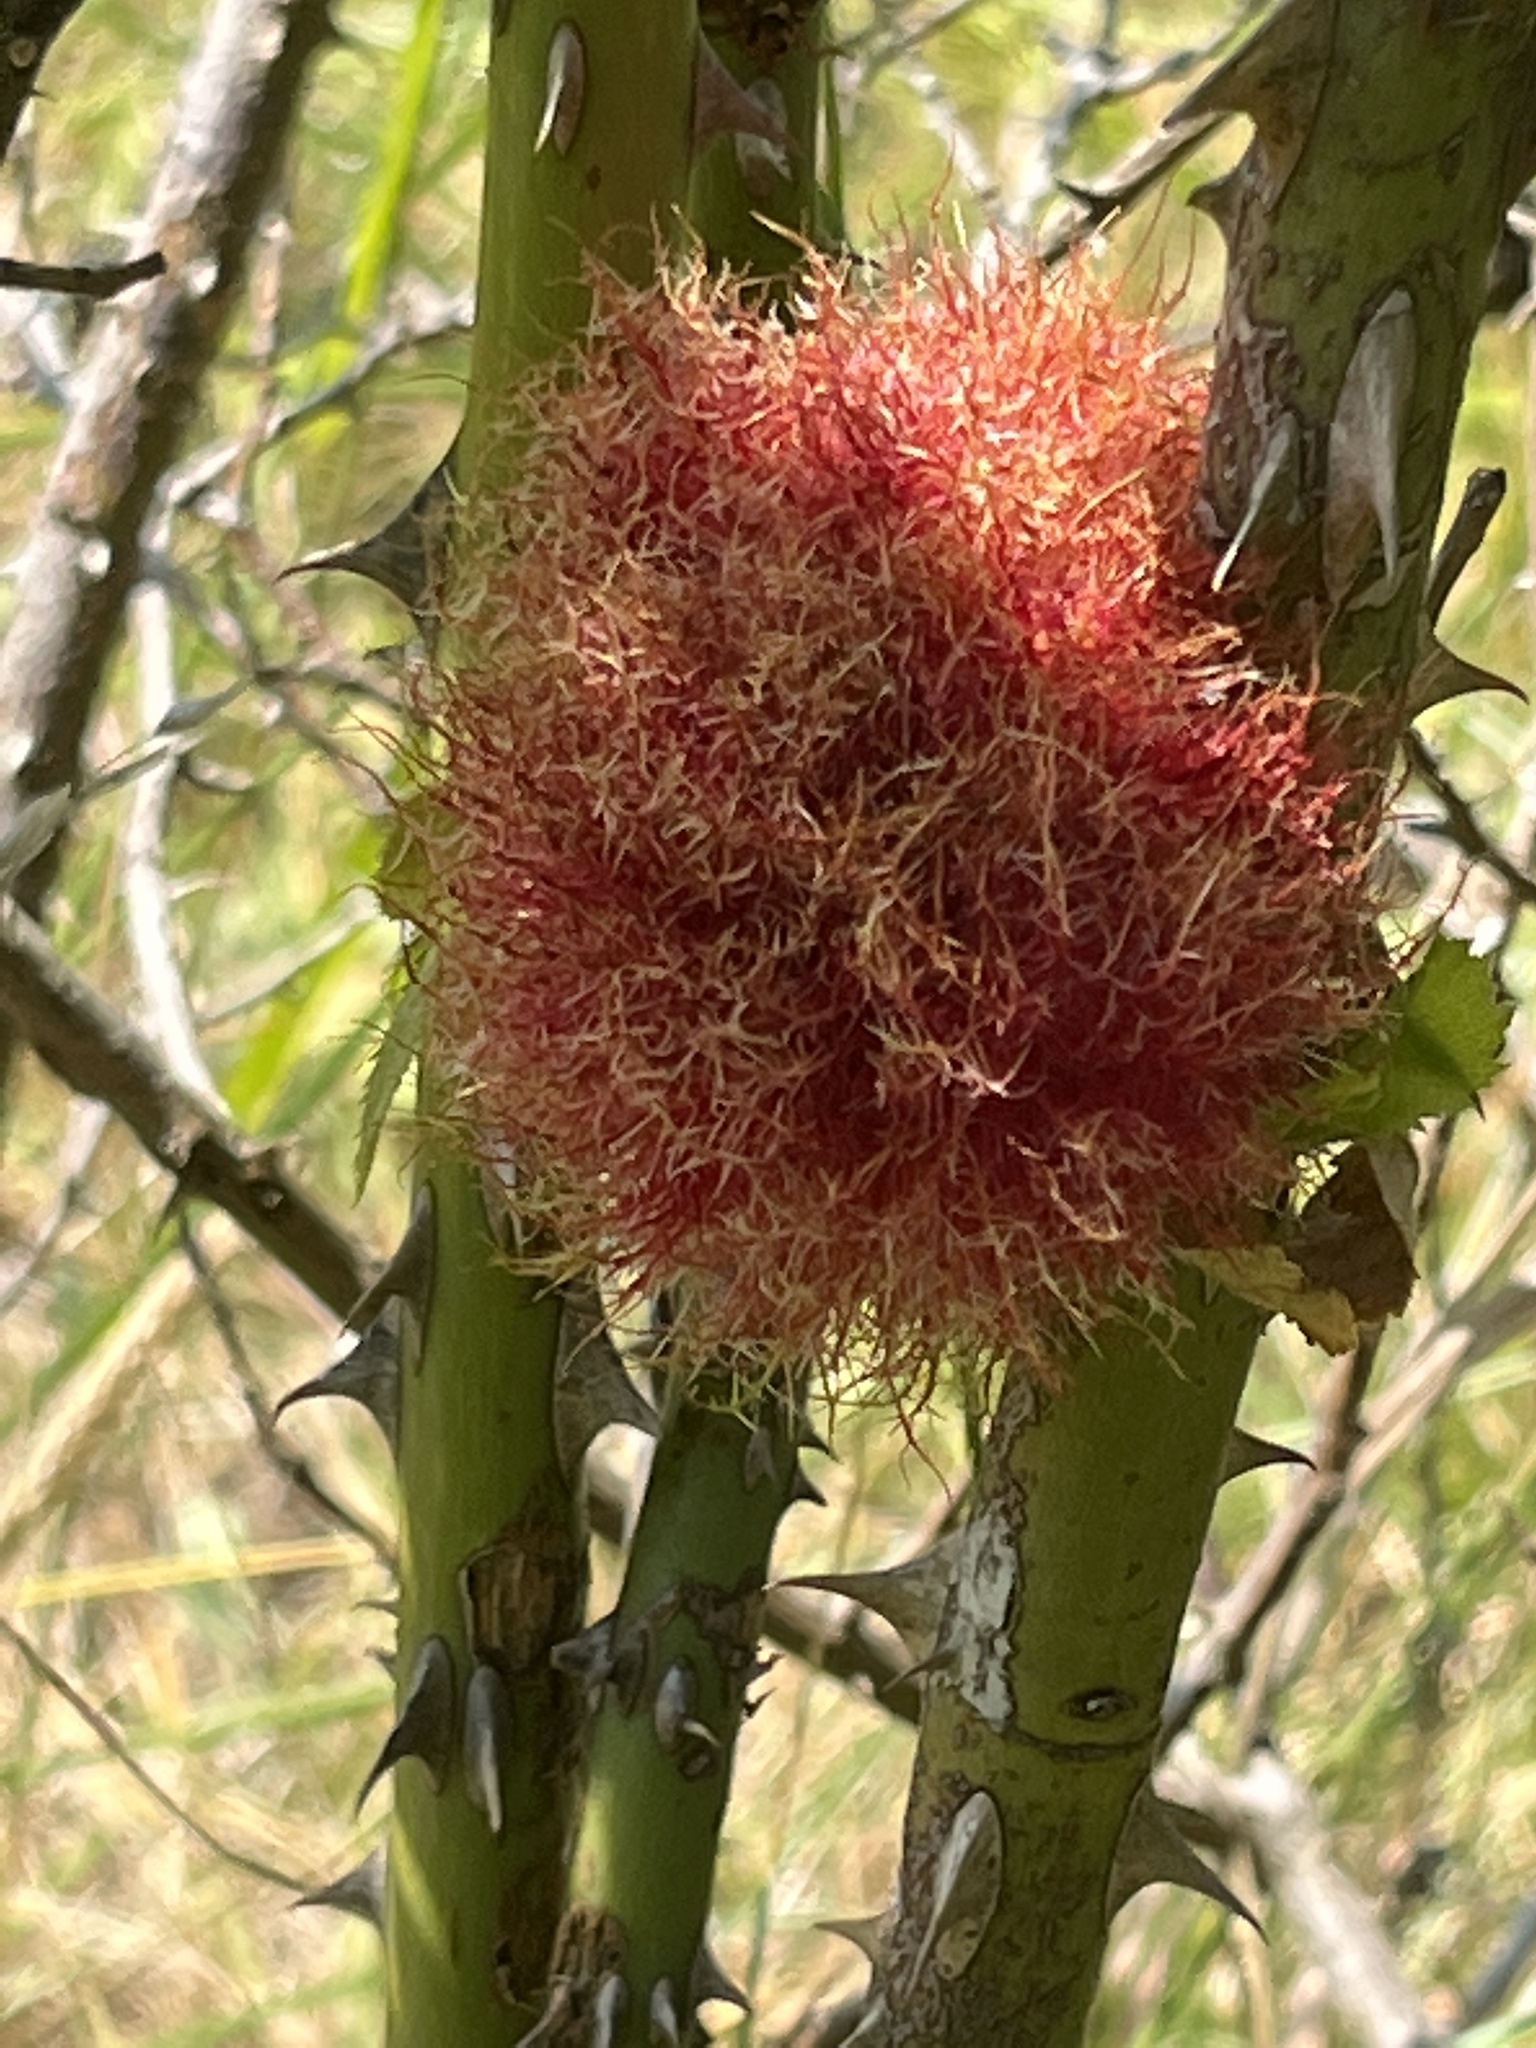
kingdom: Animalia
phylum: Arthropoda
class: Insecta
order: Hymenoptera
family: Cynipidae
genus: Diplolepis
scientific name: Diplolepis rosae
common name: Bedeguar gall
